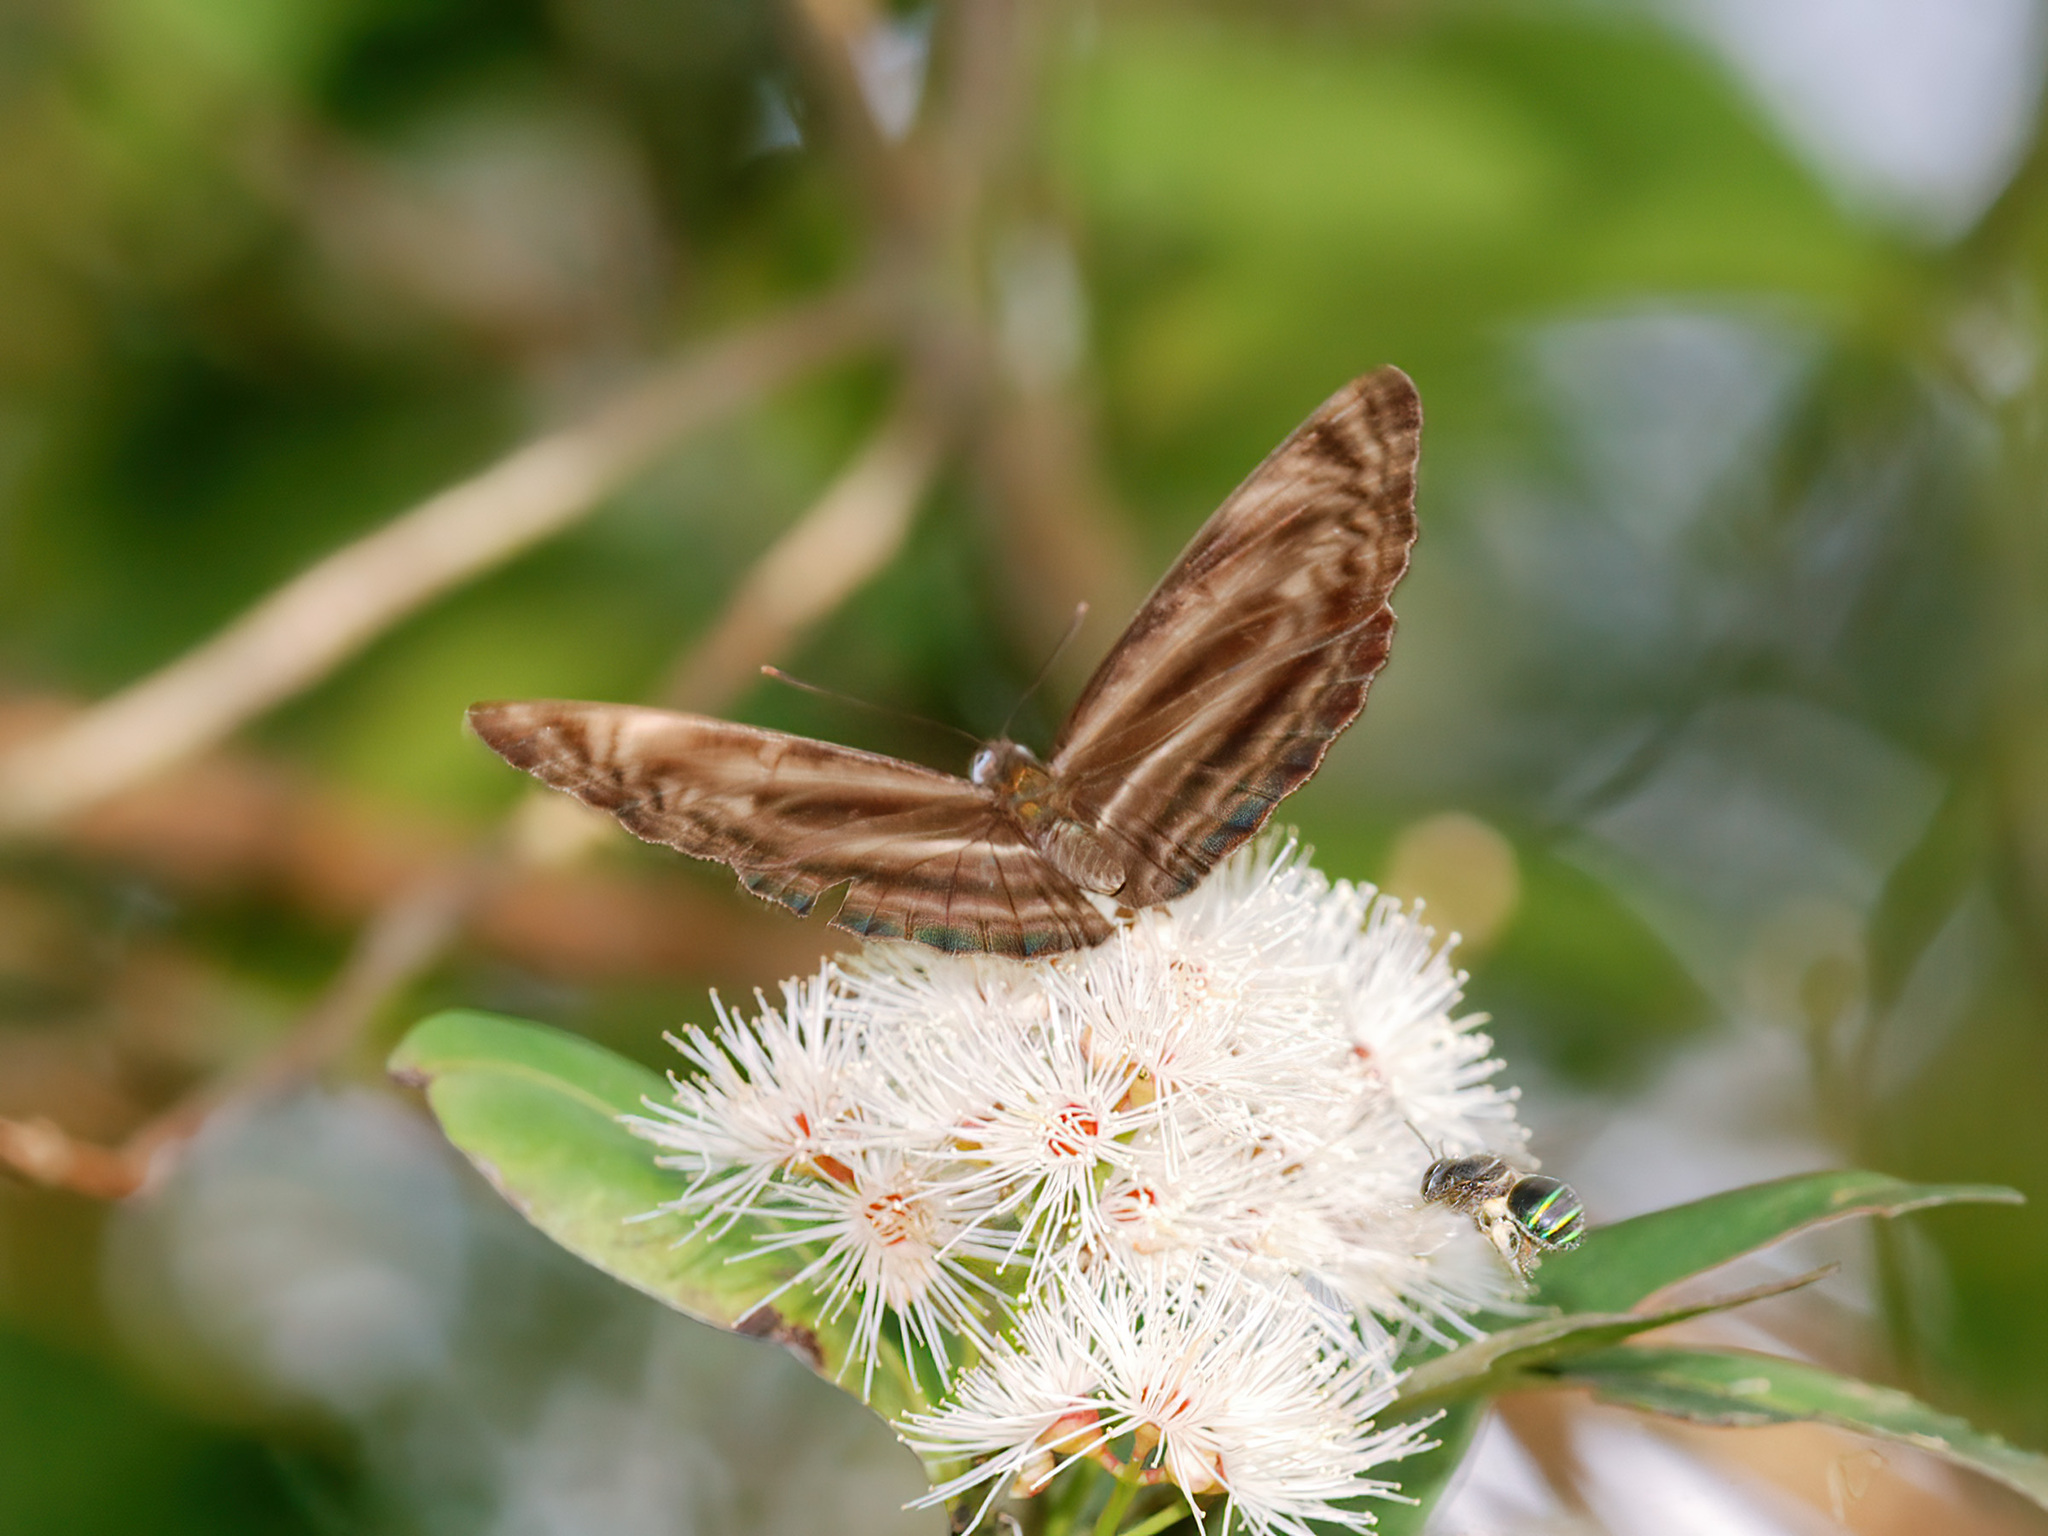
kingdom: Animalia
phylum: Arthropoda
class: Insecta
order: Lepidoptera
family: Nymphalidae
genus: Neptis
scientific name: Neptis harita
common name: Chocolate sailer
